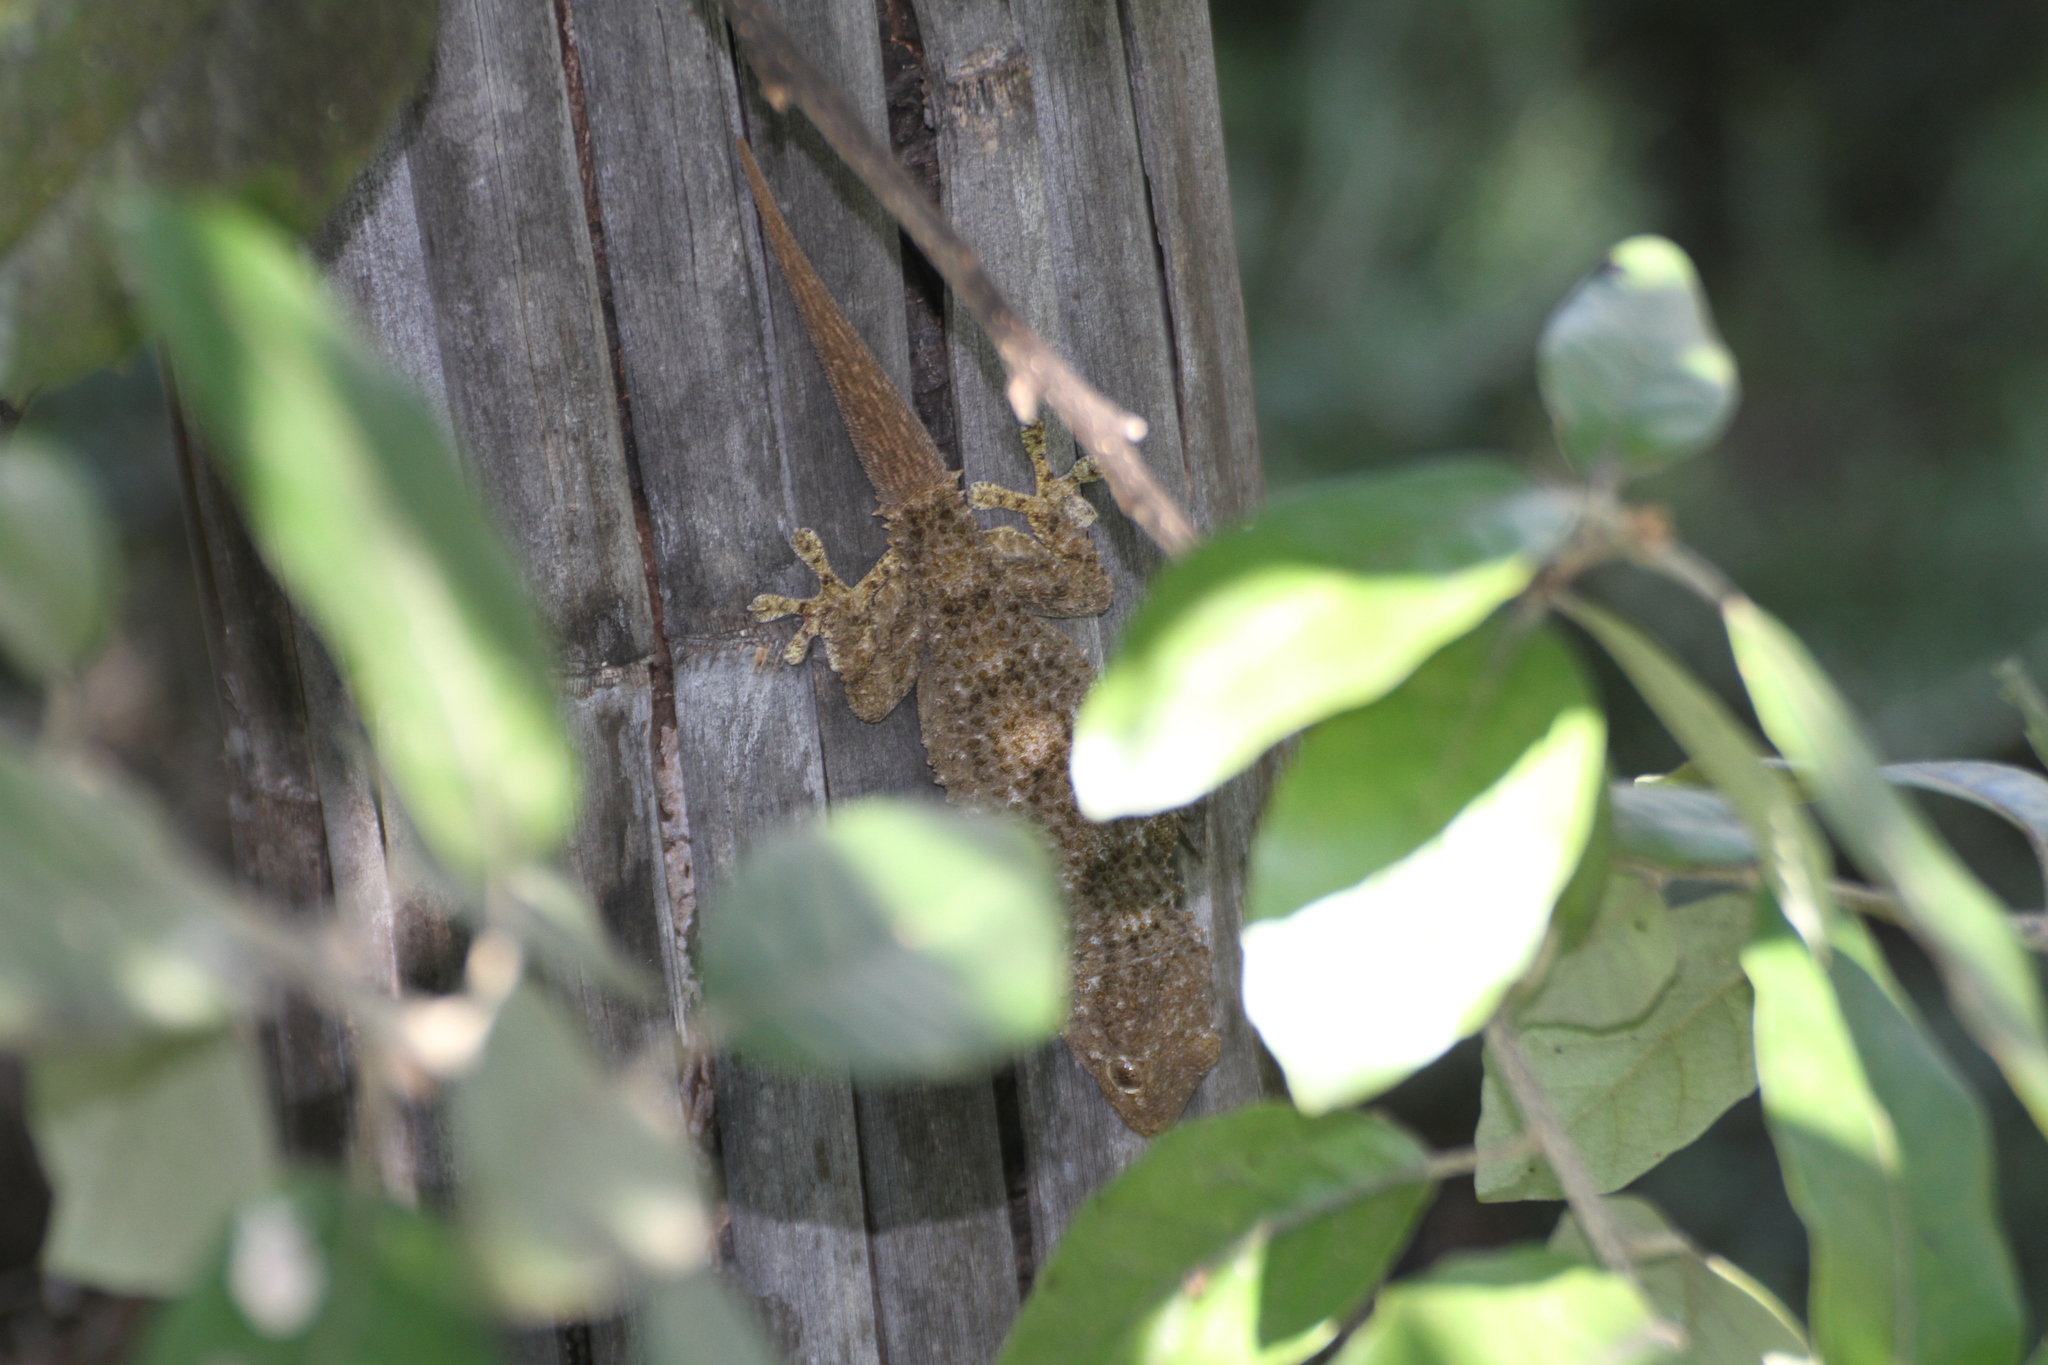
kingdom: Animalia
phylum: Chordata
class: Squamata
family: Phyllodactylidae
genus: Tarentola
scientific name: Tarentola mauritanica
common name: Moorish gecko
